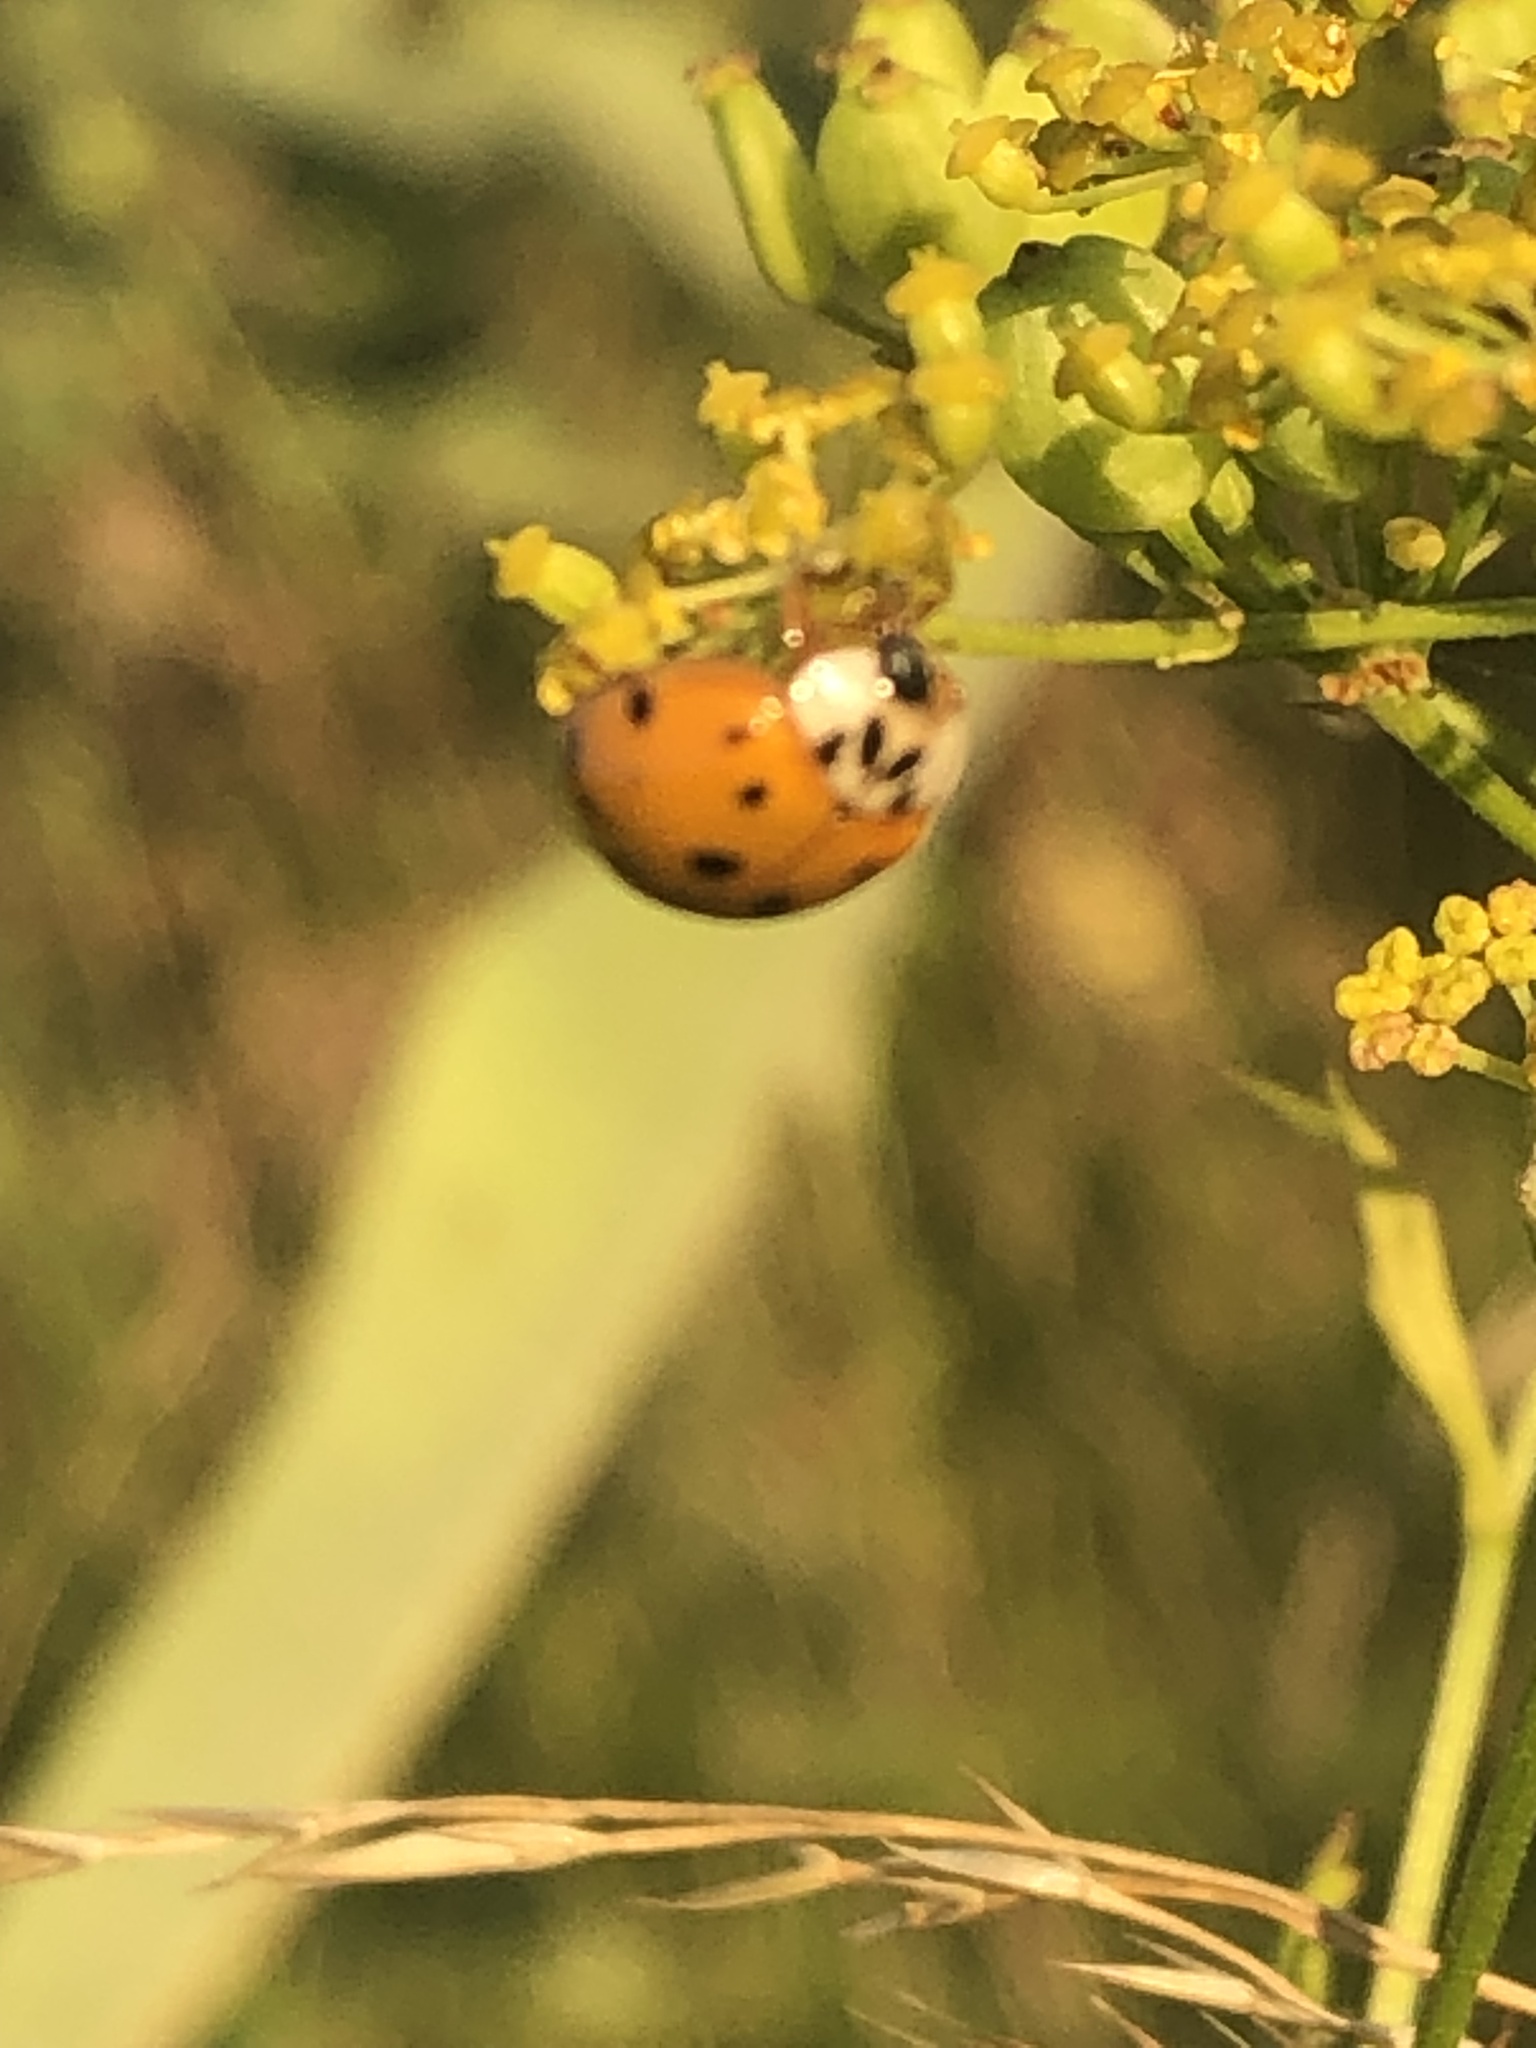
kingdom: Animalia
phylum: Arthropoda
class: Insecta
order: Coleoptera
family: Coccinellidae
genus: Harmonia
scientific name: Harmonia axyridis
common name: Harlequin ladybird
